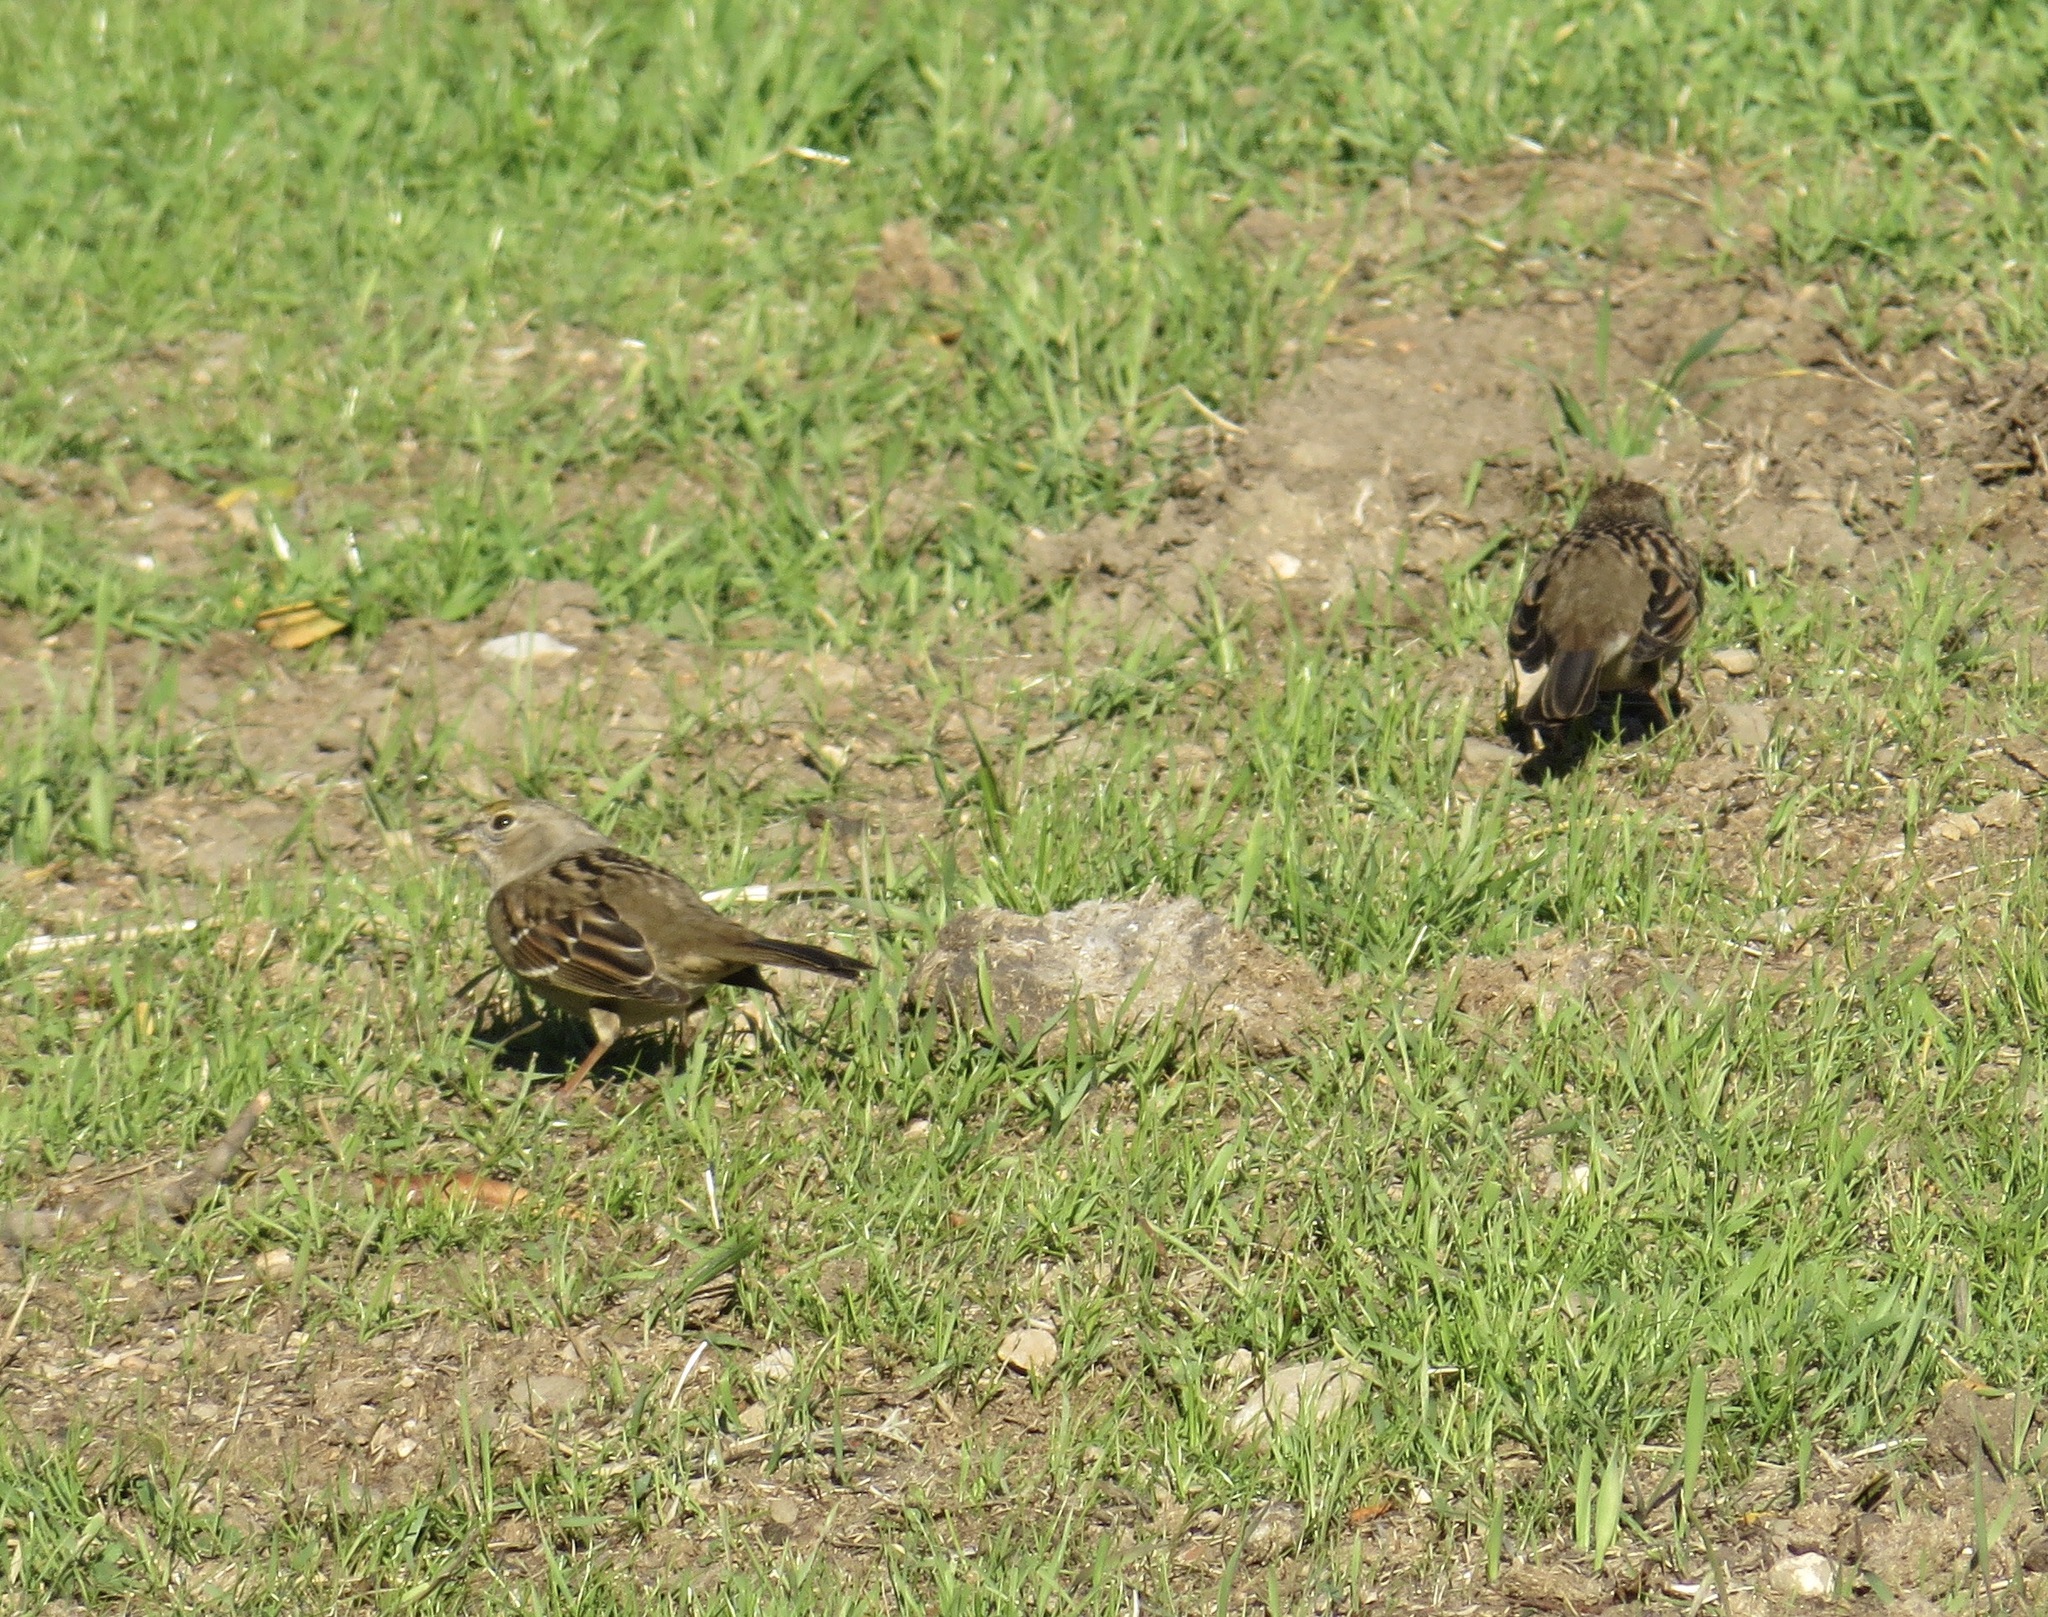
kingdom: Animalia
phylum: Chordata
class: Aves
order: Passeriformes
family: Passerellidae
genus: Zonotrichia
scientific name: Zonotrichia atricapilla
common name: Golden-crowned sparrow
